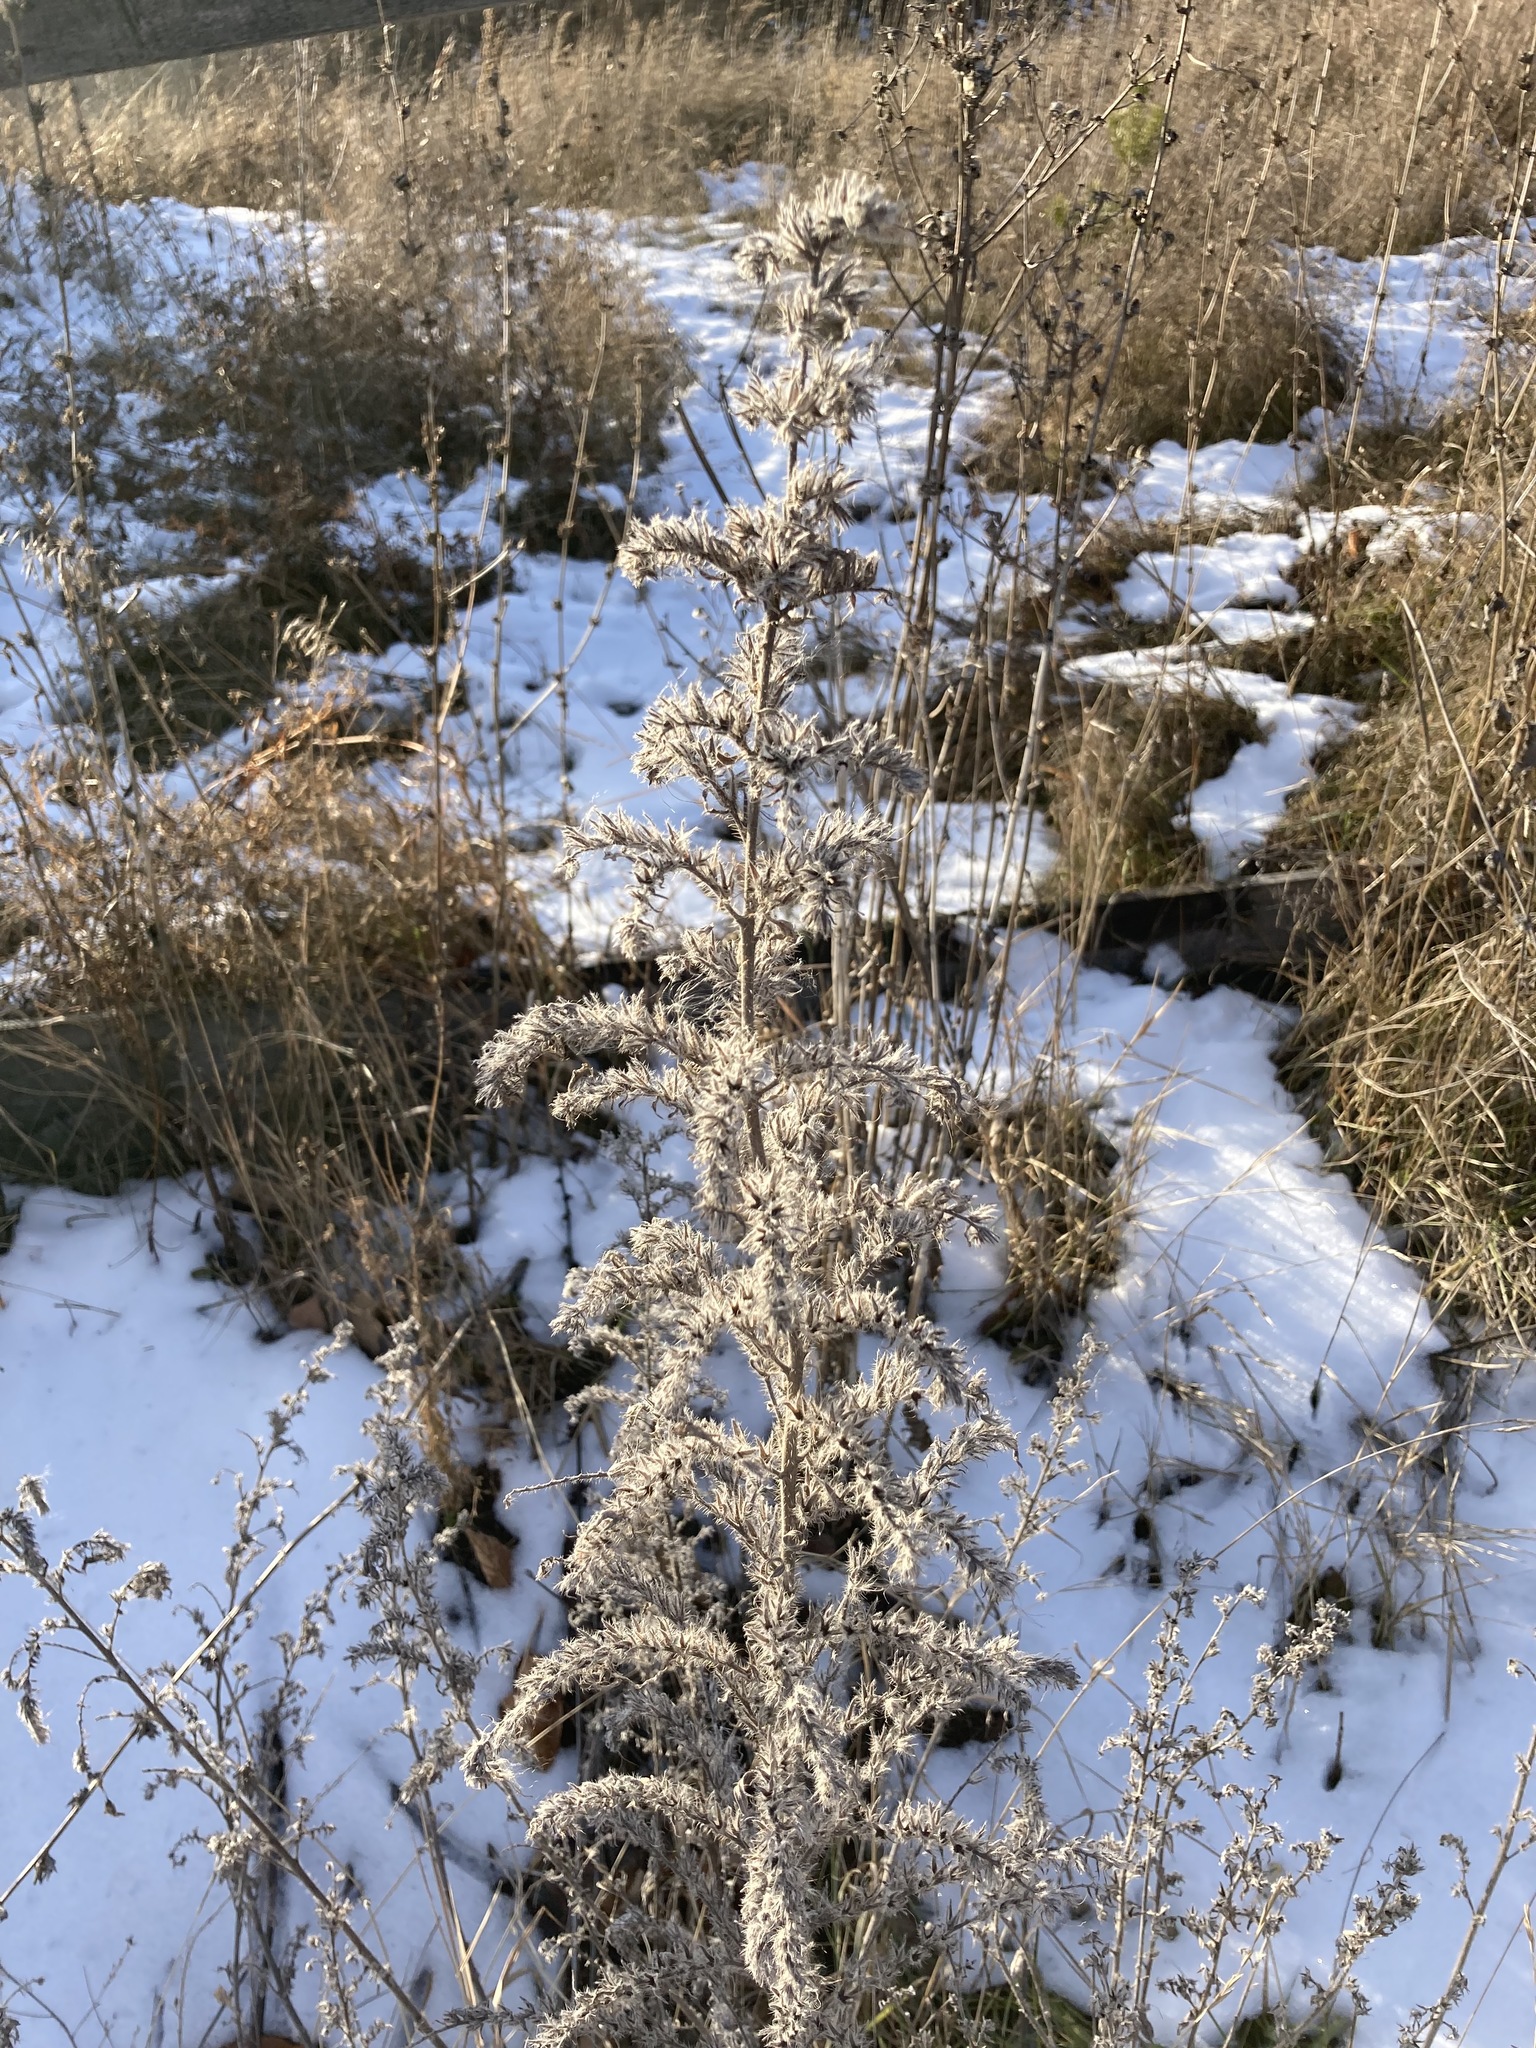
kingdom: Plantae
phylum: Tracheophyta
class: Magnoliopsida
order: Boraginales
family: Boraginaceae
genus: Echium
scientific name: Echium vulgare
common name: Common viper's bugloss
